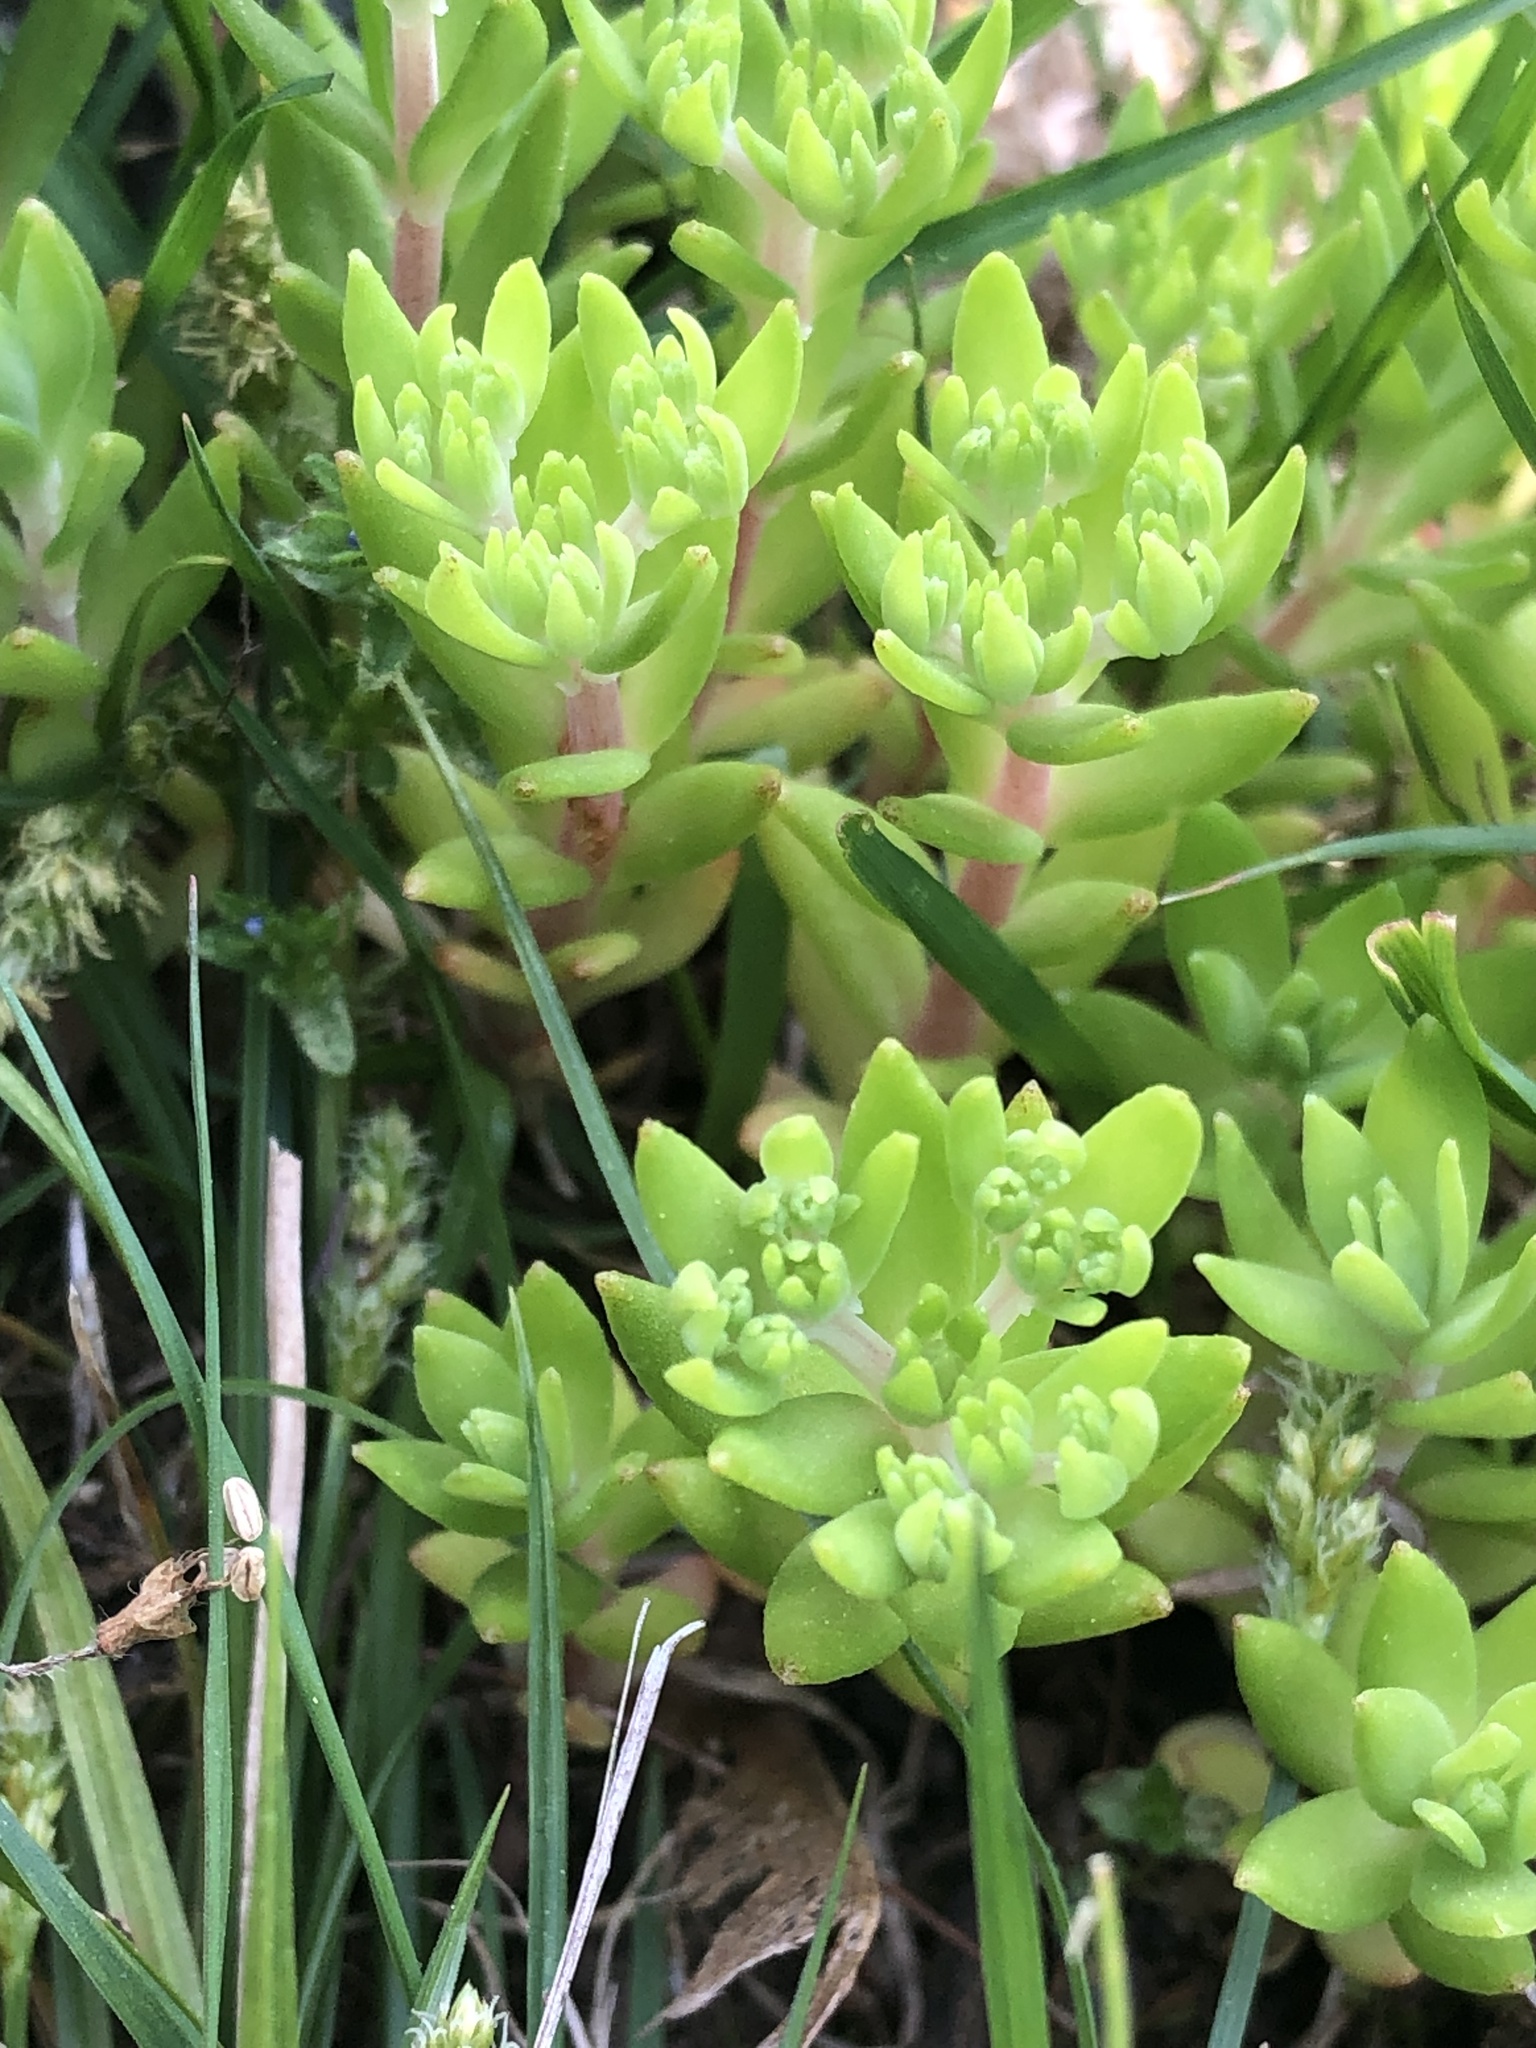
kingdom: Plantae
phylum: Tracheophyta
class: Magnoliopsida
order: Saxifragales
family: Crassulaceae
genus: Sedum
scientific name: Sedum sarmentosum
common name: Stringy stonecrop
